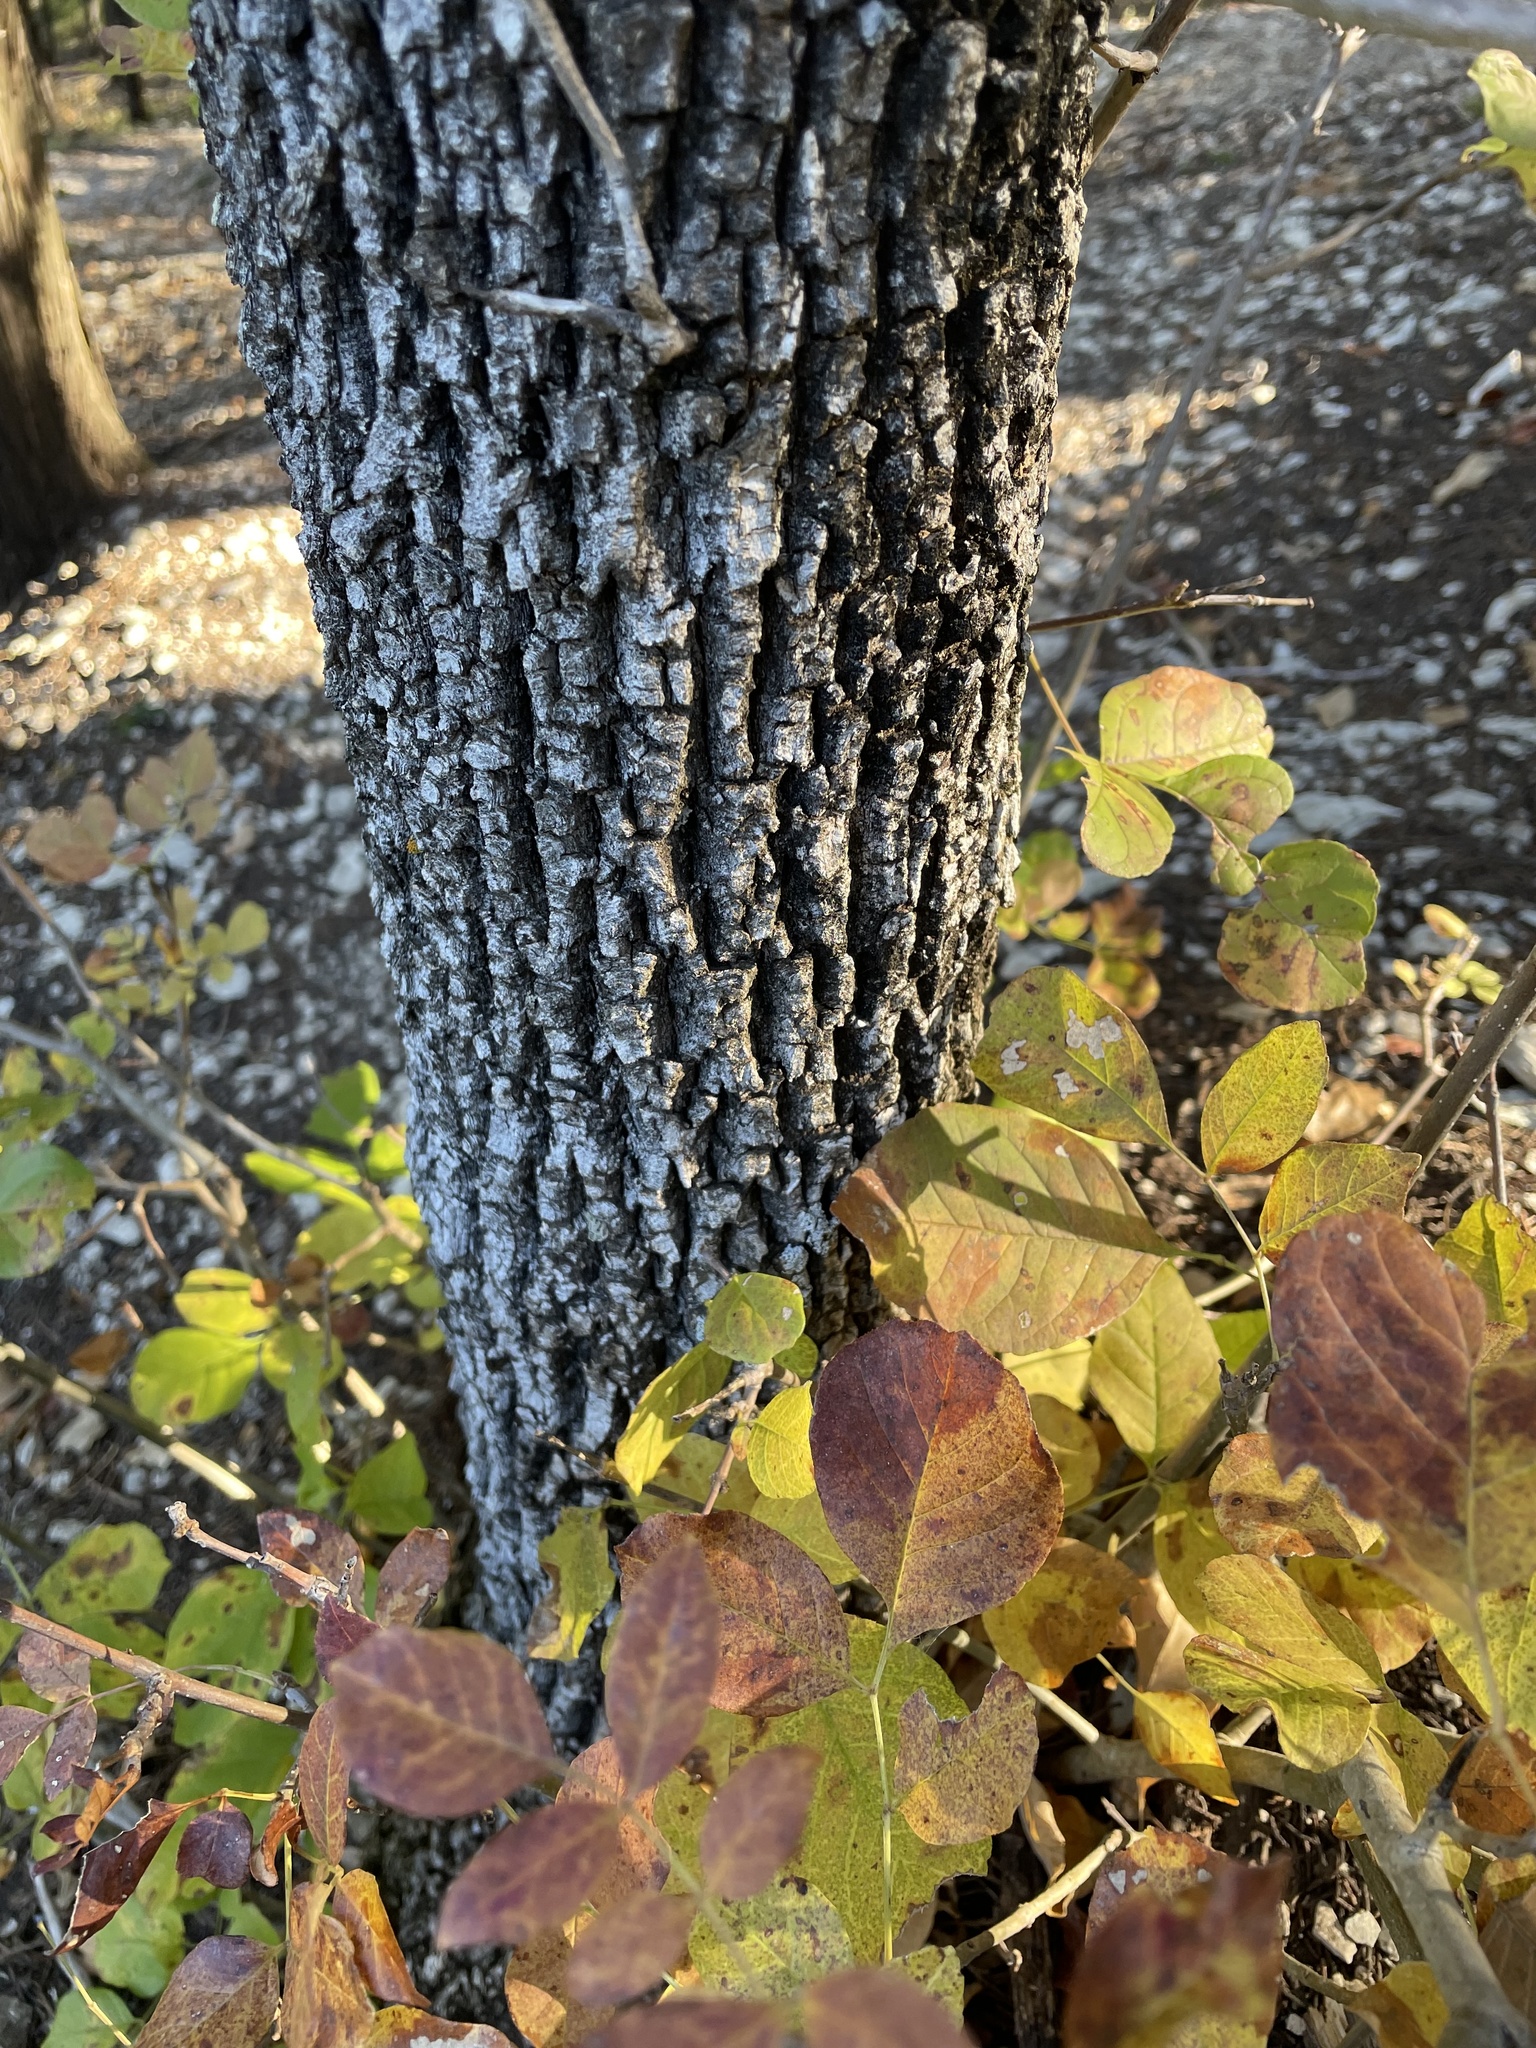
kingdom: Plantae
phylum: Tracheophyta
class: Magnoliopsida
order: Lamiales
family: Oleaceae
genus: Fraxinus
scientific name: Fraxinus albicans
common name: Texas ash
